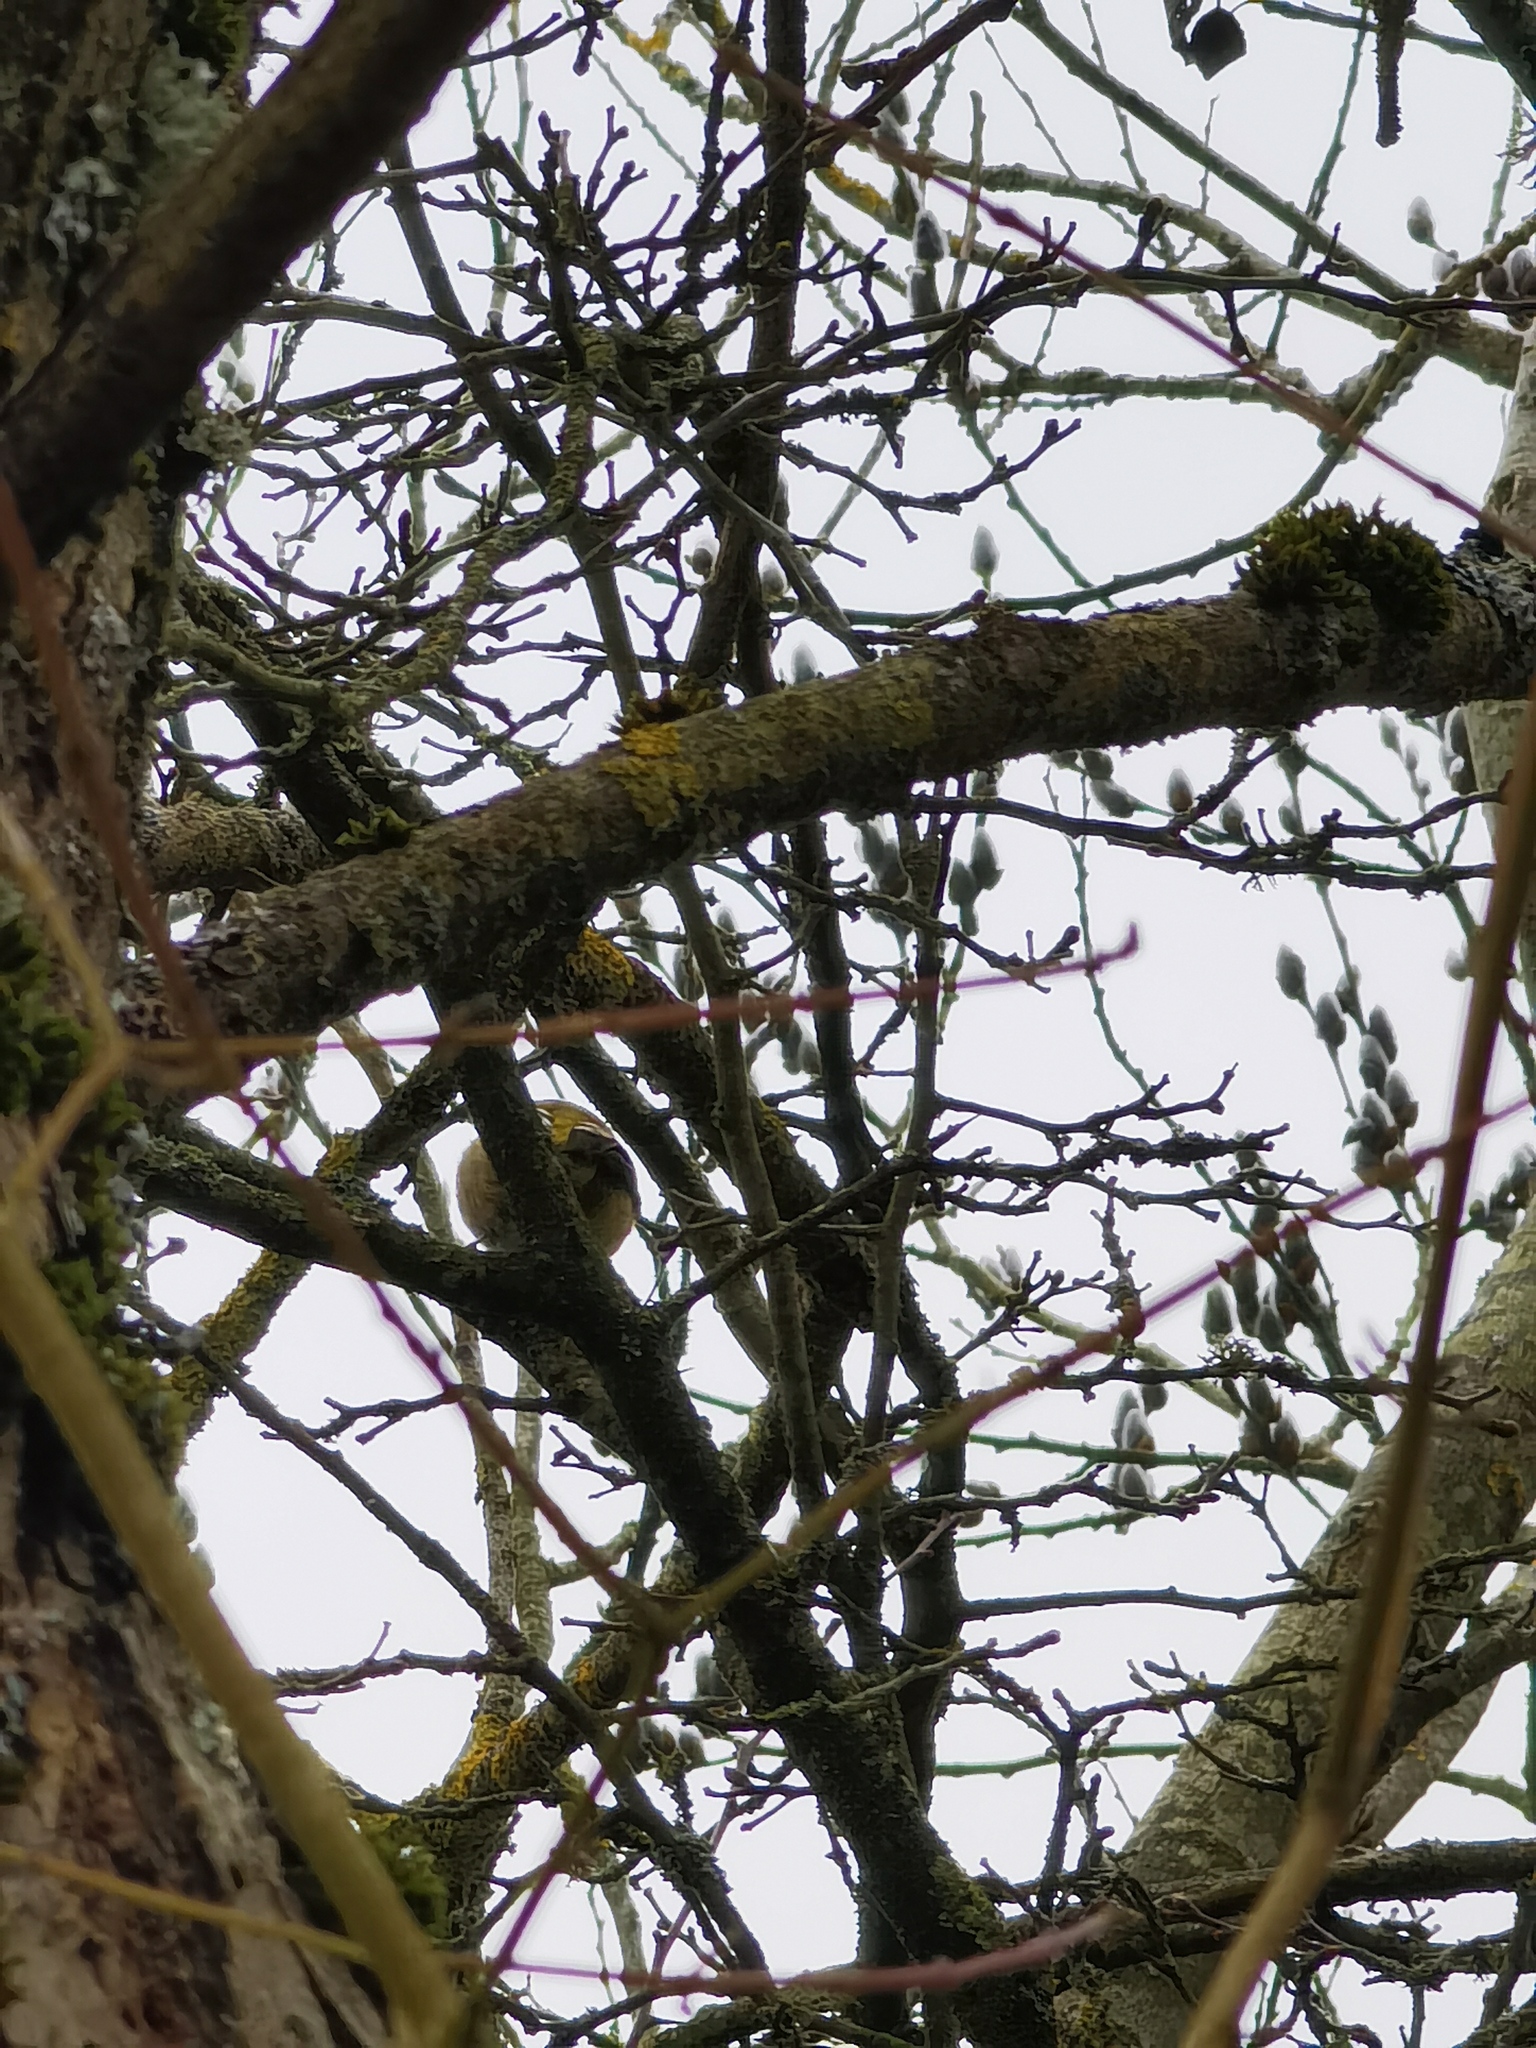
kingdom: Plantae
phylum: Tracheophyta
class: Liliopsida
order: Poales
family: Poaceae
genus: Chloris
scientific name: Chloris chloris
